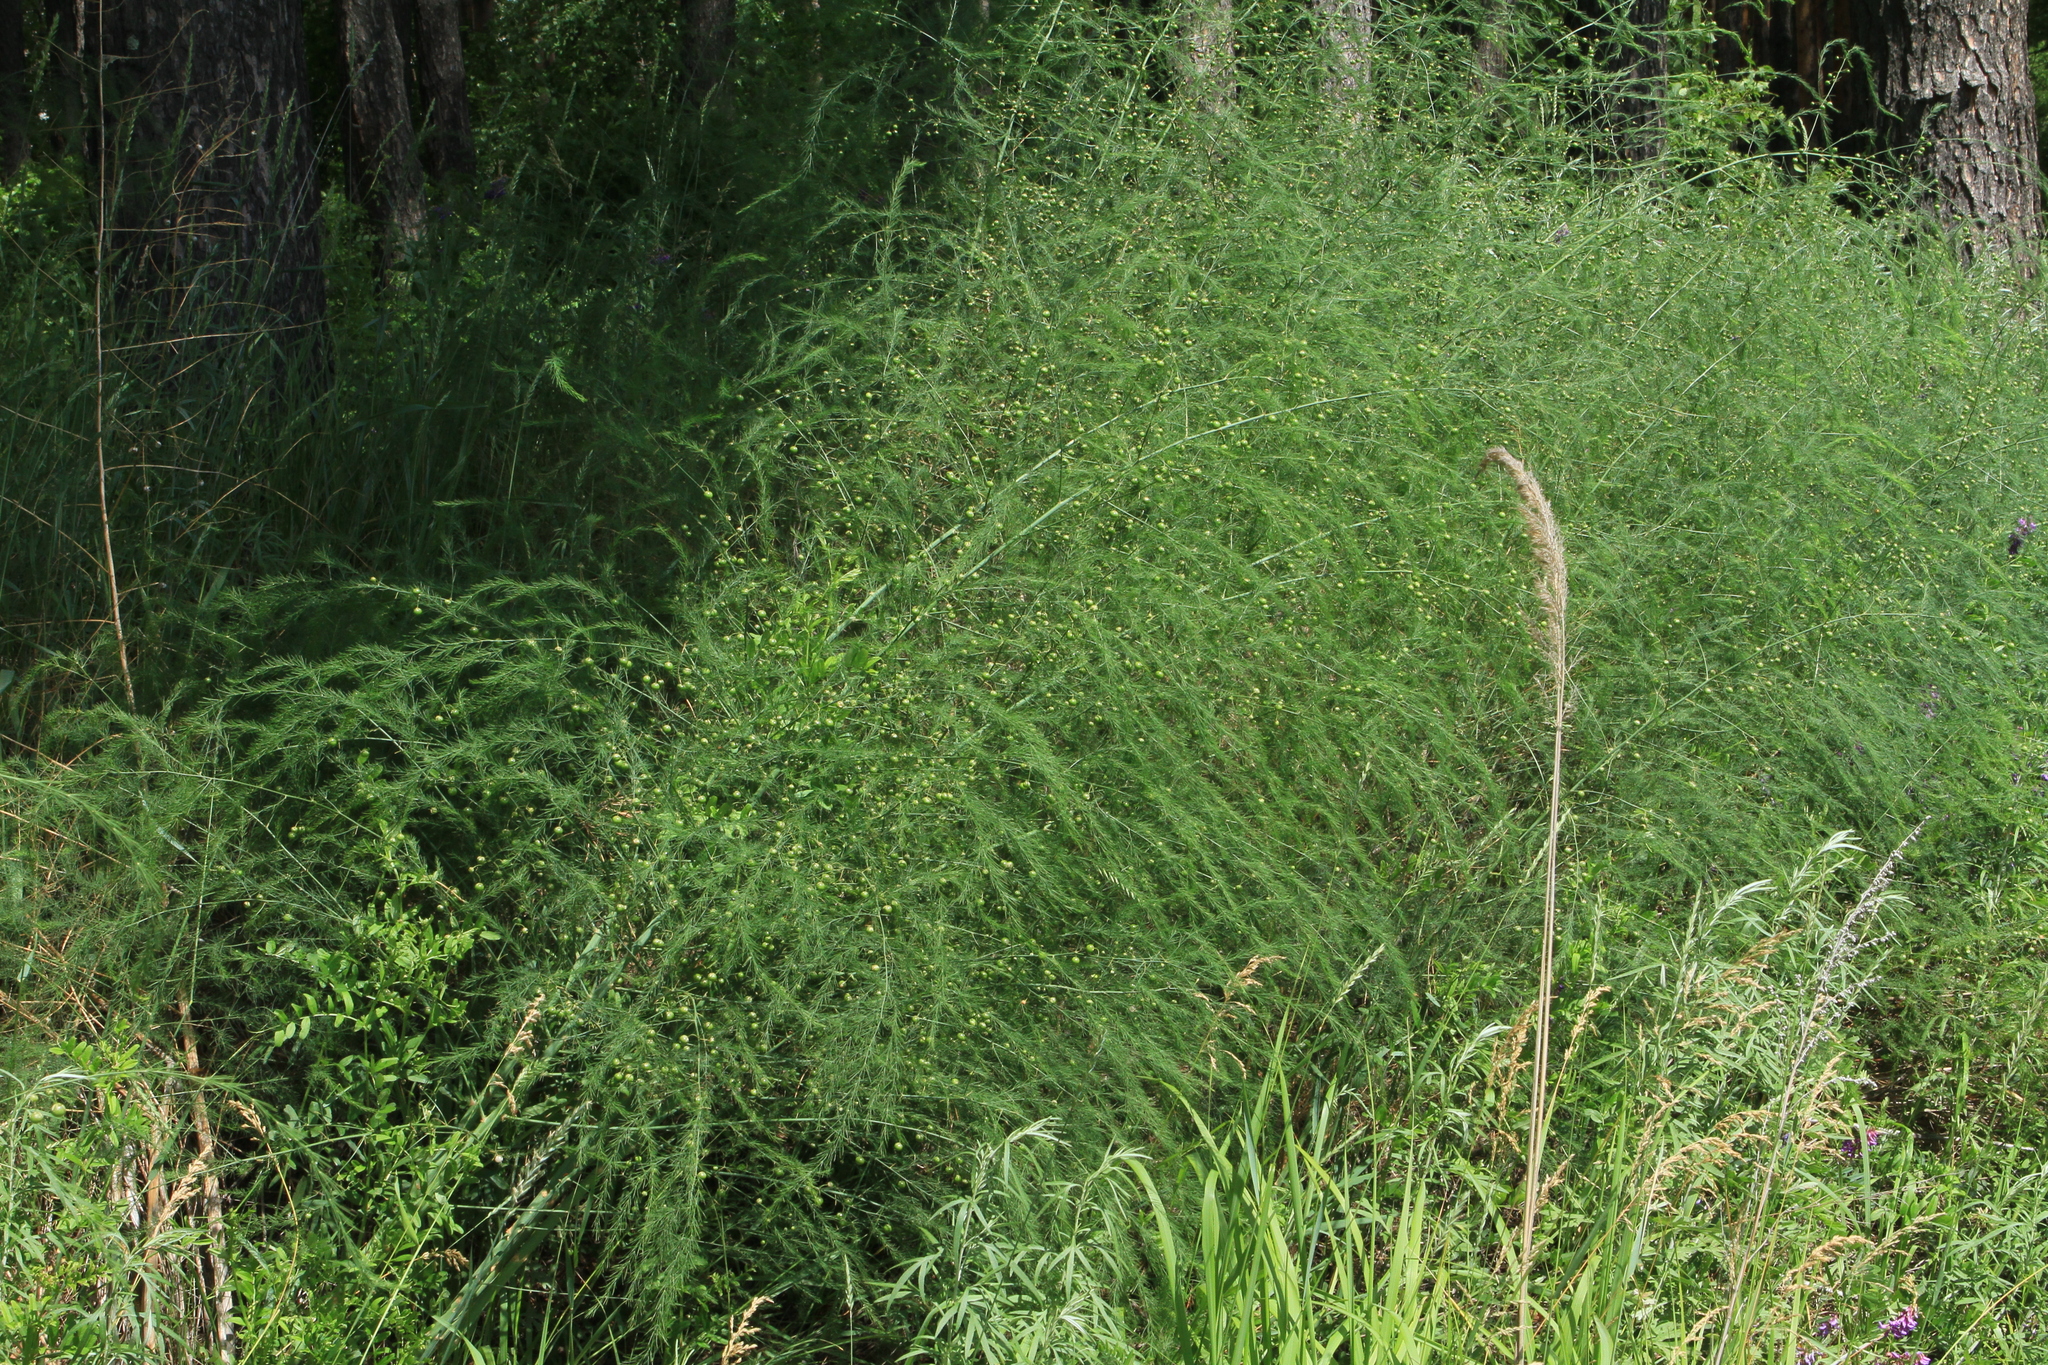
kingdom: Plantae
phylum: Tracheophyta
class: Liliopsida
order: Asparagales
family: Asparagaceae
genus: Asparagus
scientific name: Asparagus officinalis
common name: Garden asparagus
